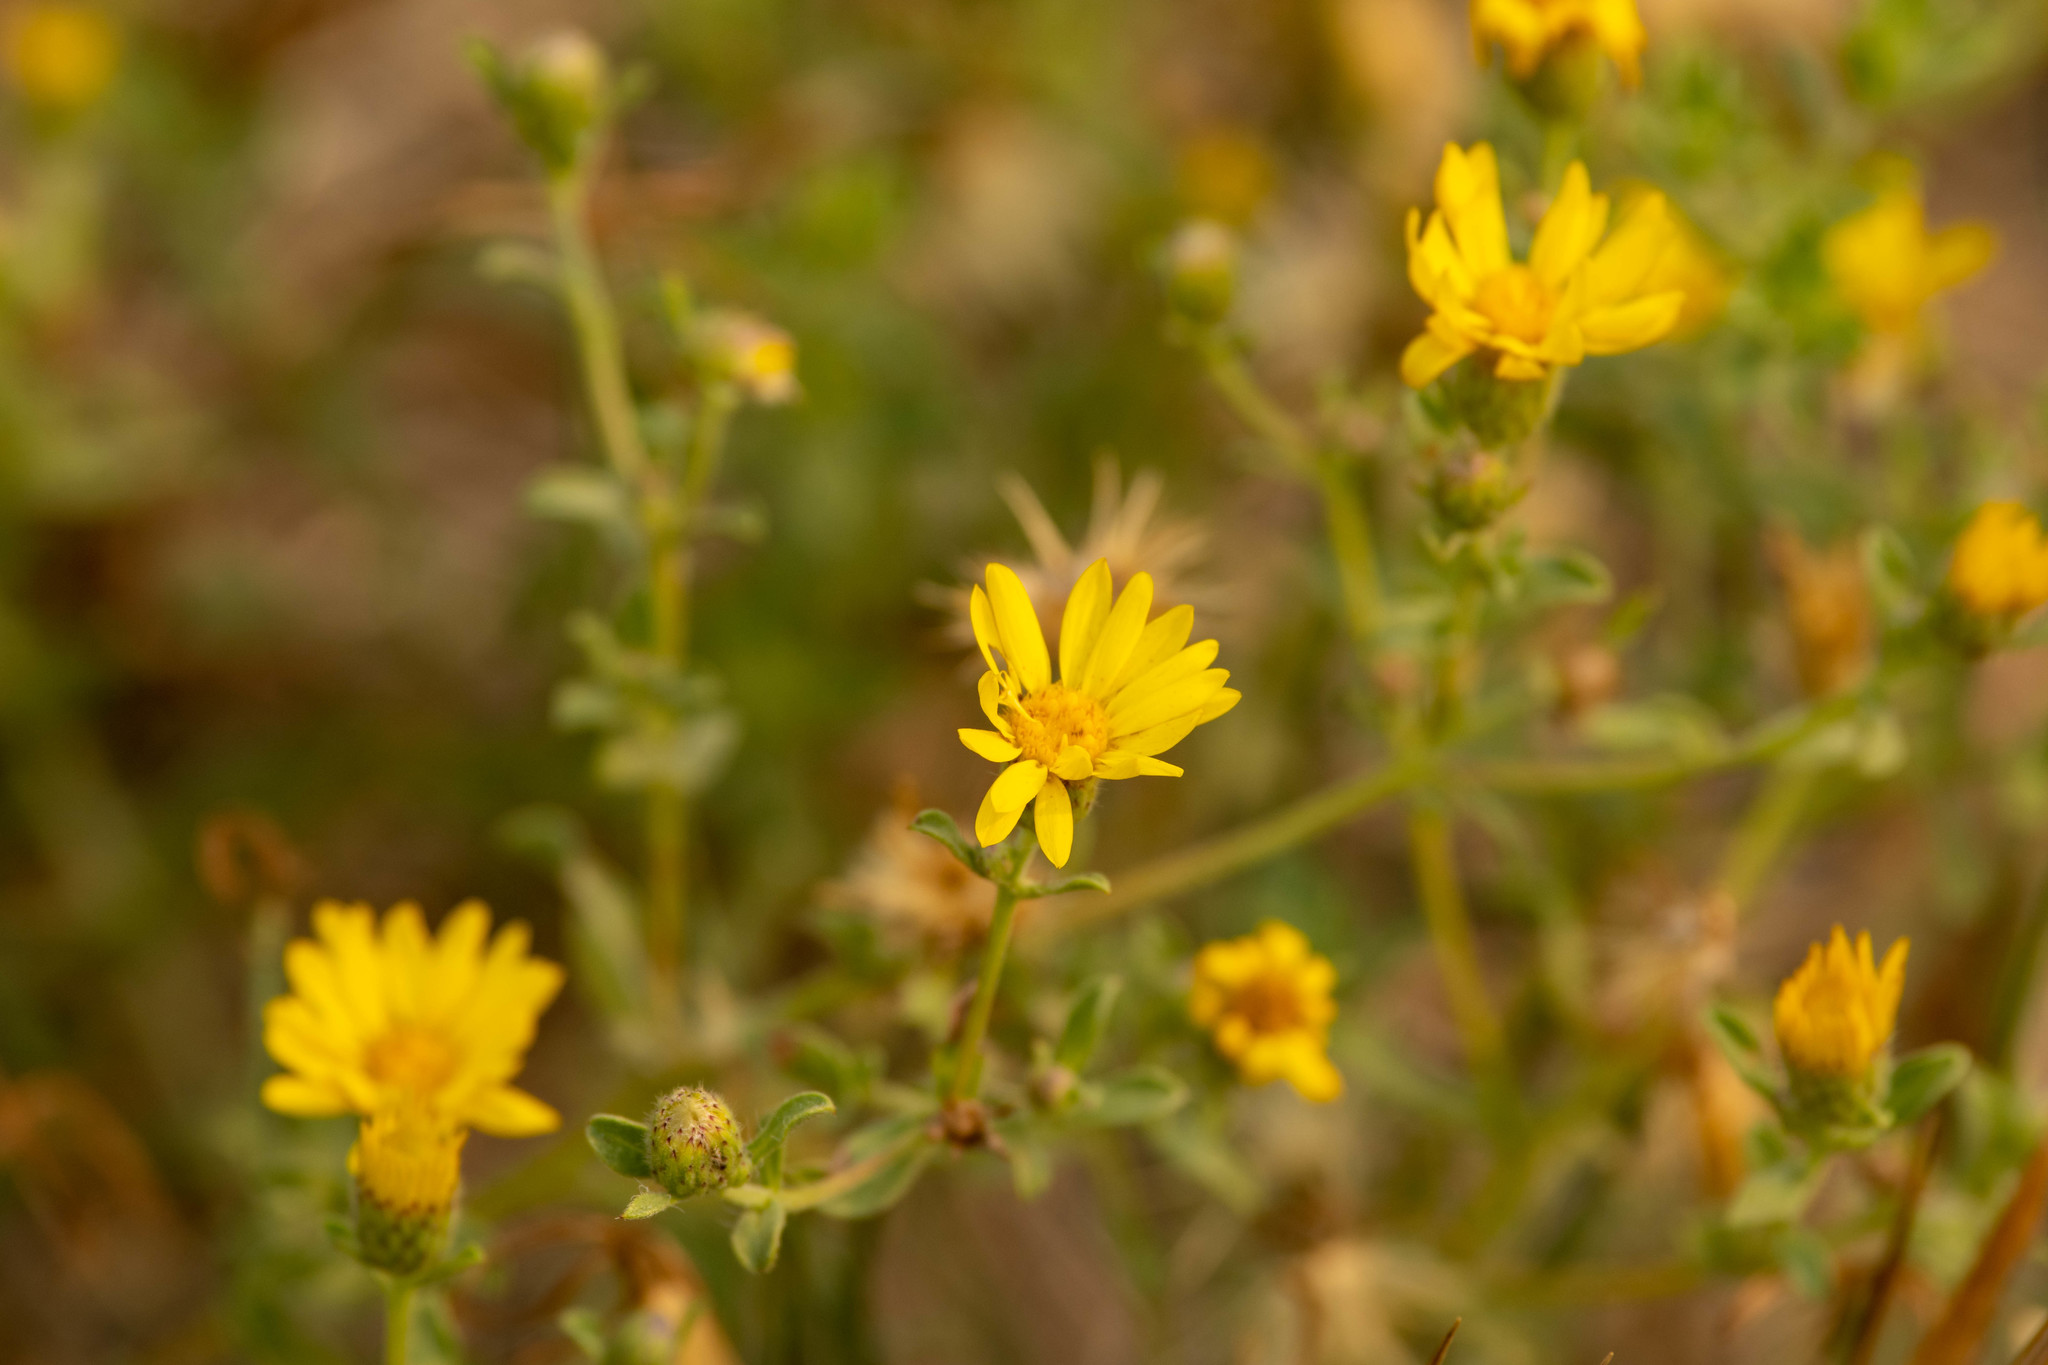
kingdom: Plantae
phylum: Tracheophyta
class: Magnoliopsida
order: Asterales
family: Asteraceae
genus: Heterotheca
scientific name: Heterotheca villosa
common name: Hairy false goldenaster
